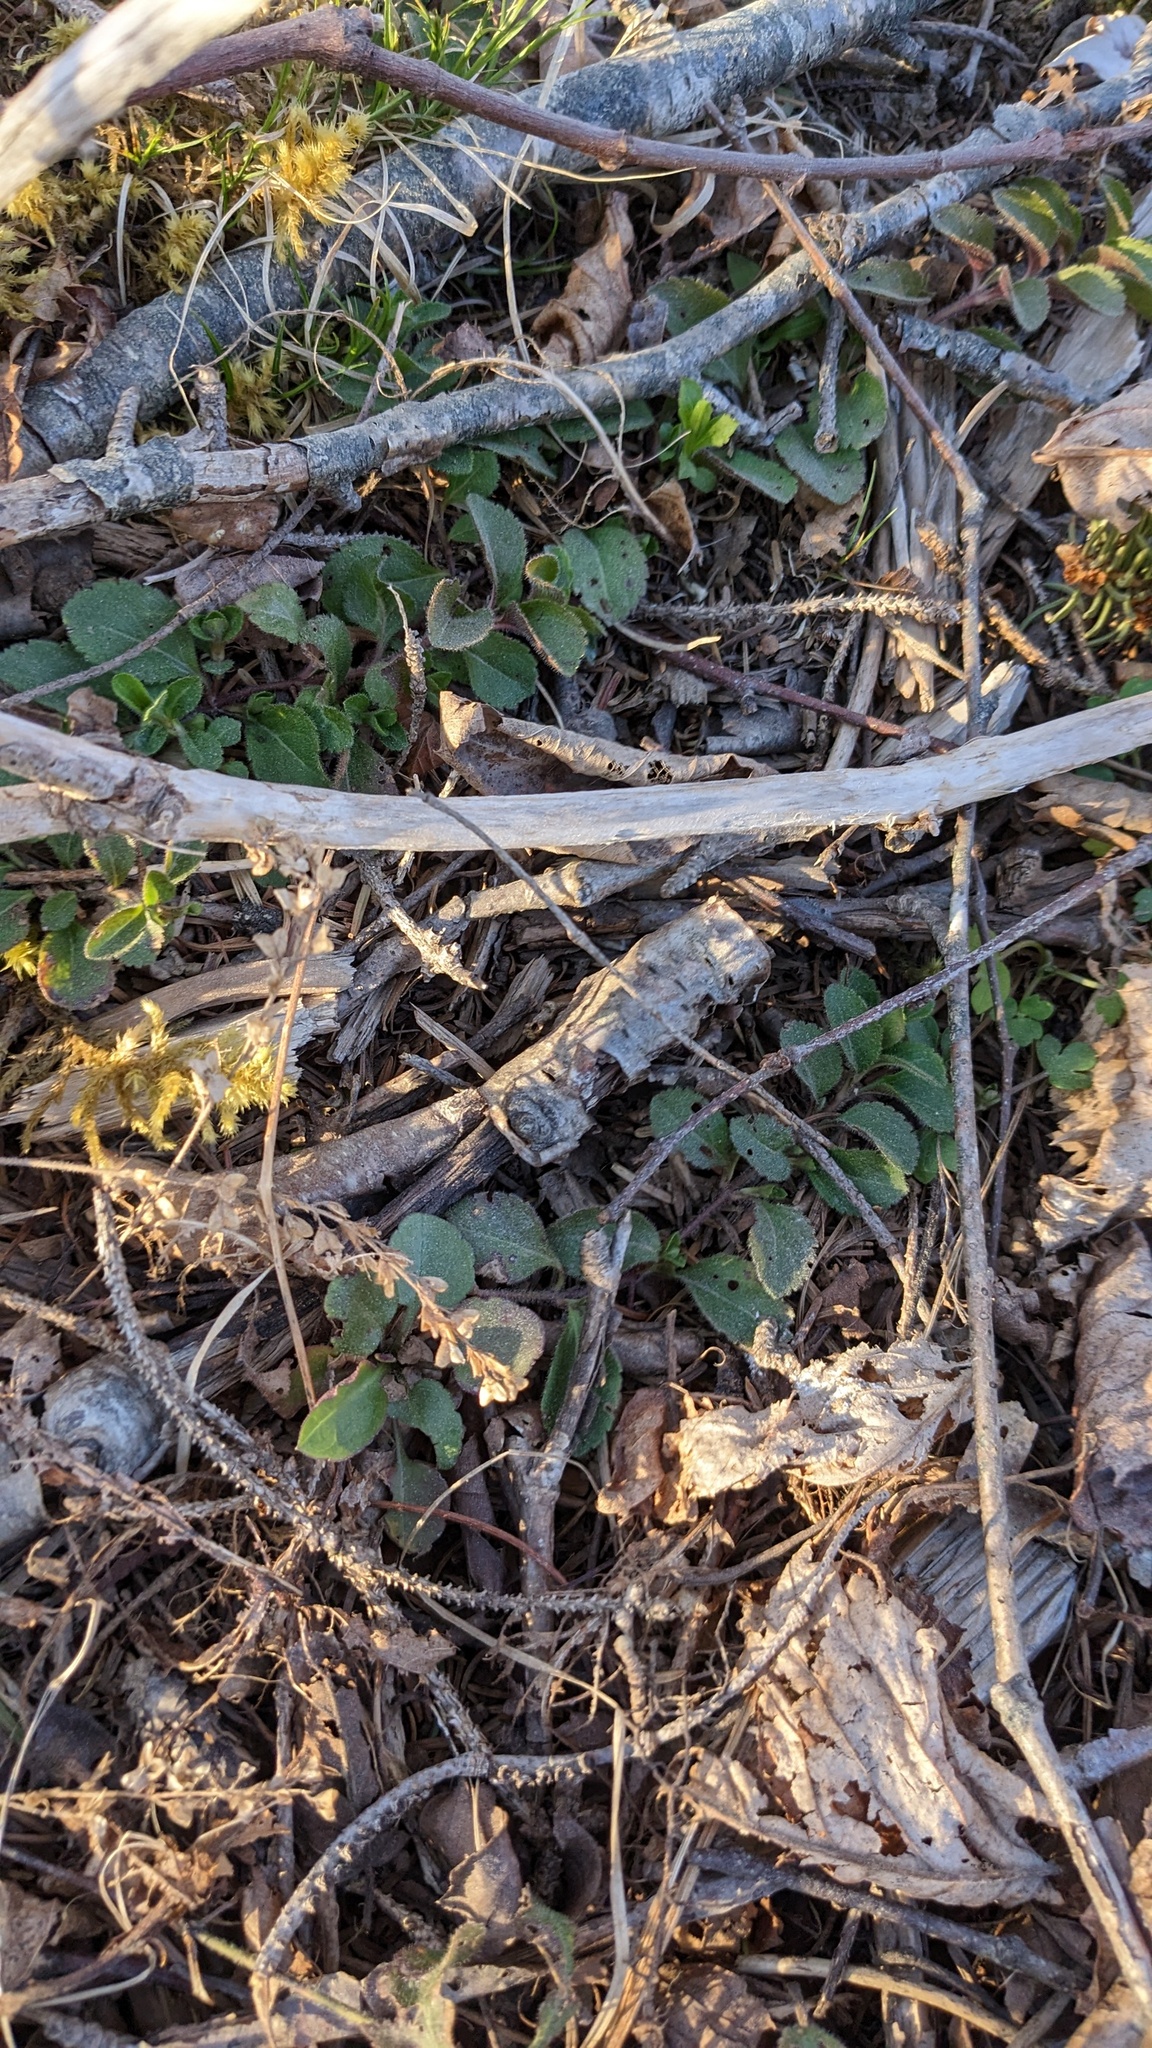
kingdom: Plantae
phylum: Tracheophyta
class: Magnoliopsida
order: Lamiales
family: Plantaginaceae
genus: Veronica
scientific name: Veronica officinalis
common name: Common speedwell
